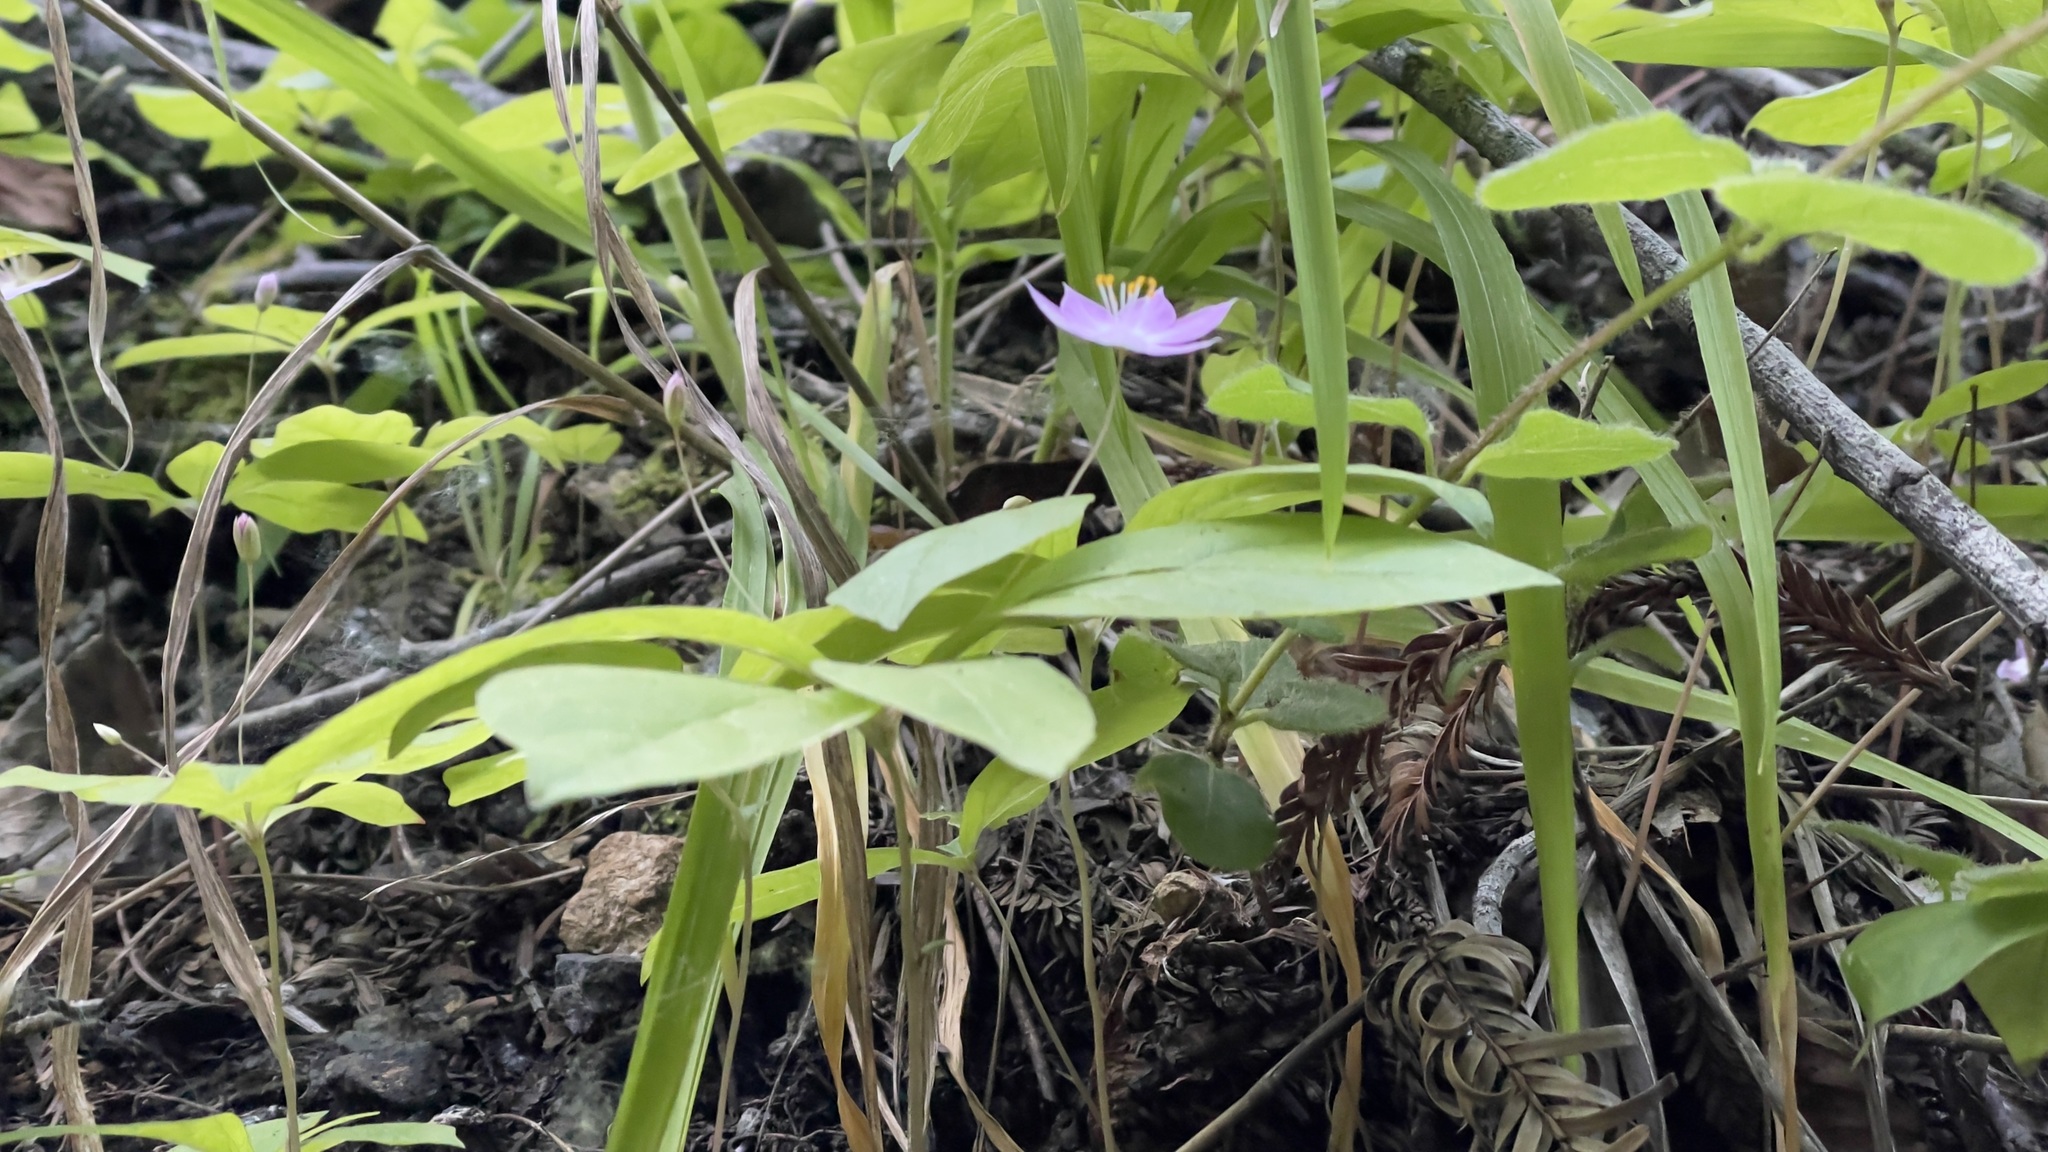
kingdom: Plantae
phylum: Tracheophyta
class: Magnoliopsida
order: Ericales
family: Primulaceae
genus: Lysimachia
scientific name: Lysimachia latifolia
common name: Pacific starflower
